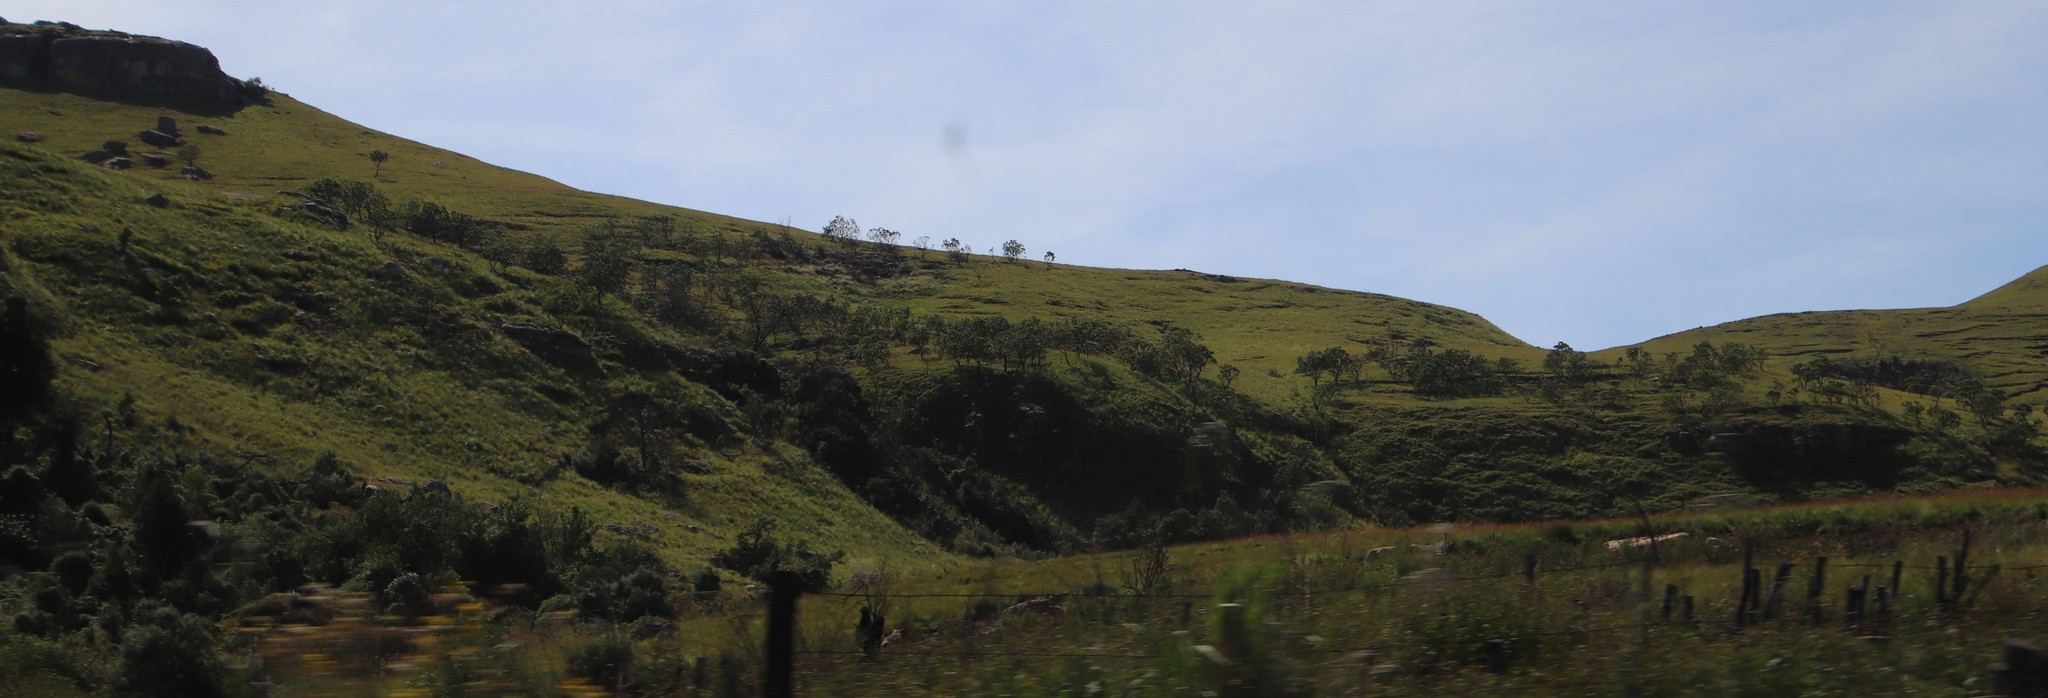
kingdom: Plantae
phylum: Tracheophyta
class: Magnoliopsida
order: Proteales
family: Proteaceae
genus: Protea
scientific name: Protea caffra
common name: Common sugarbush
